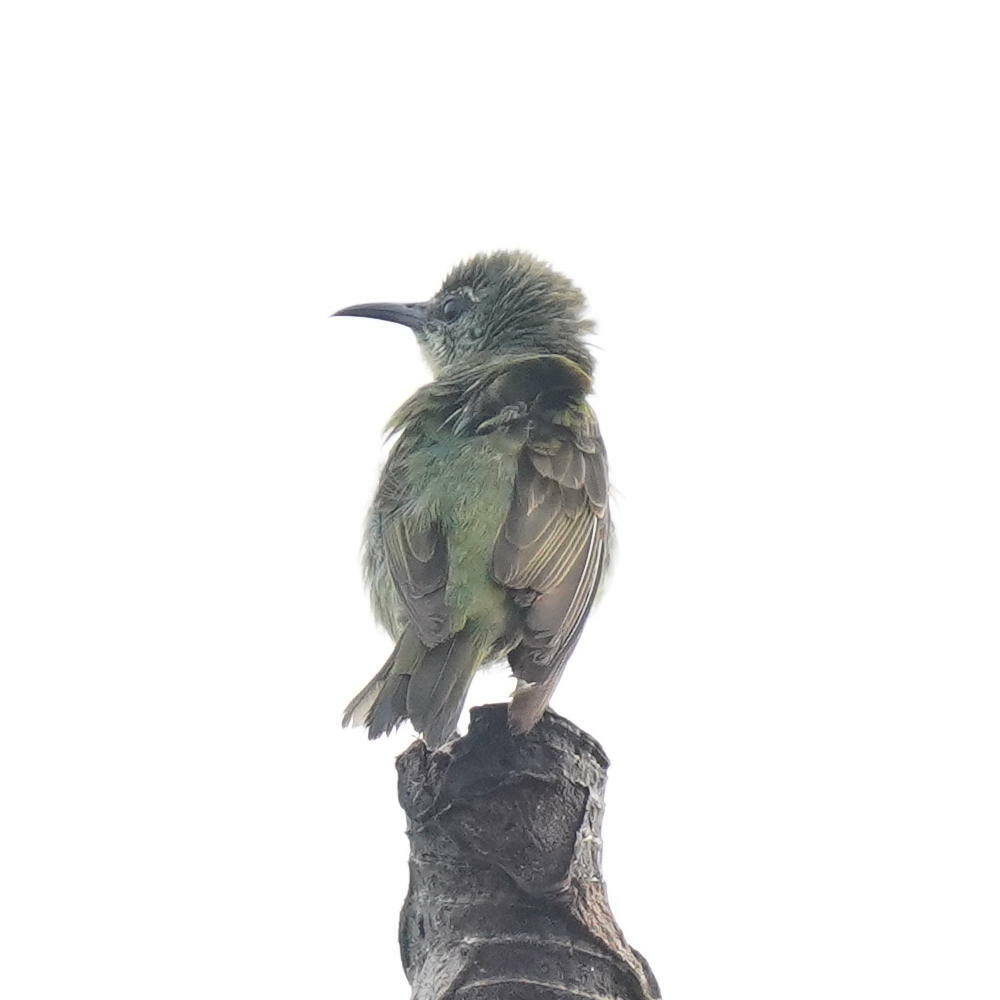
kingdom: Animalia
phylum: Chordata
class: Aves
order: Passeriformes
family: Thraupidae
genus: Cyanerpes
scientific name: Cyanerpes cyaneus
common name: Red-legged honeycreeper
